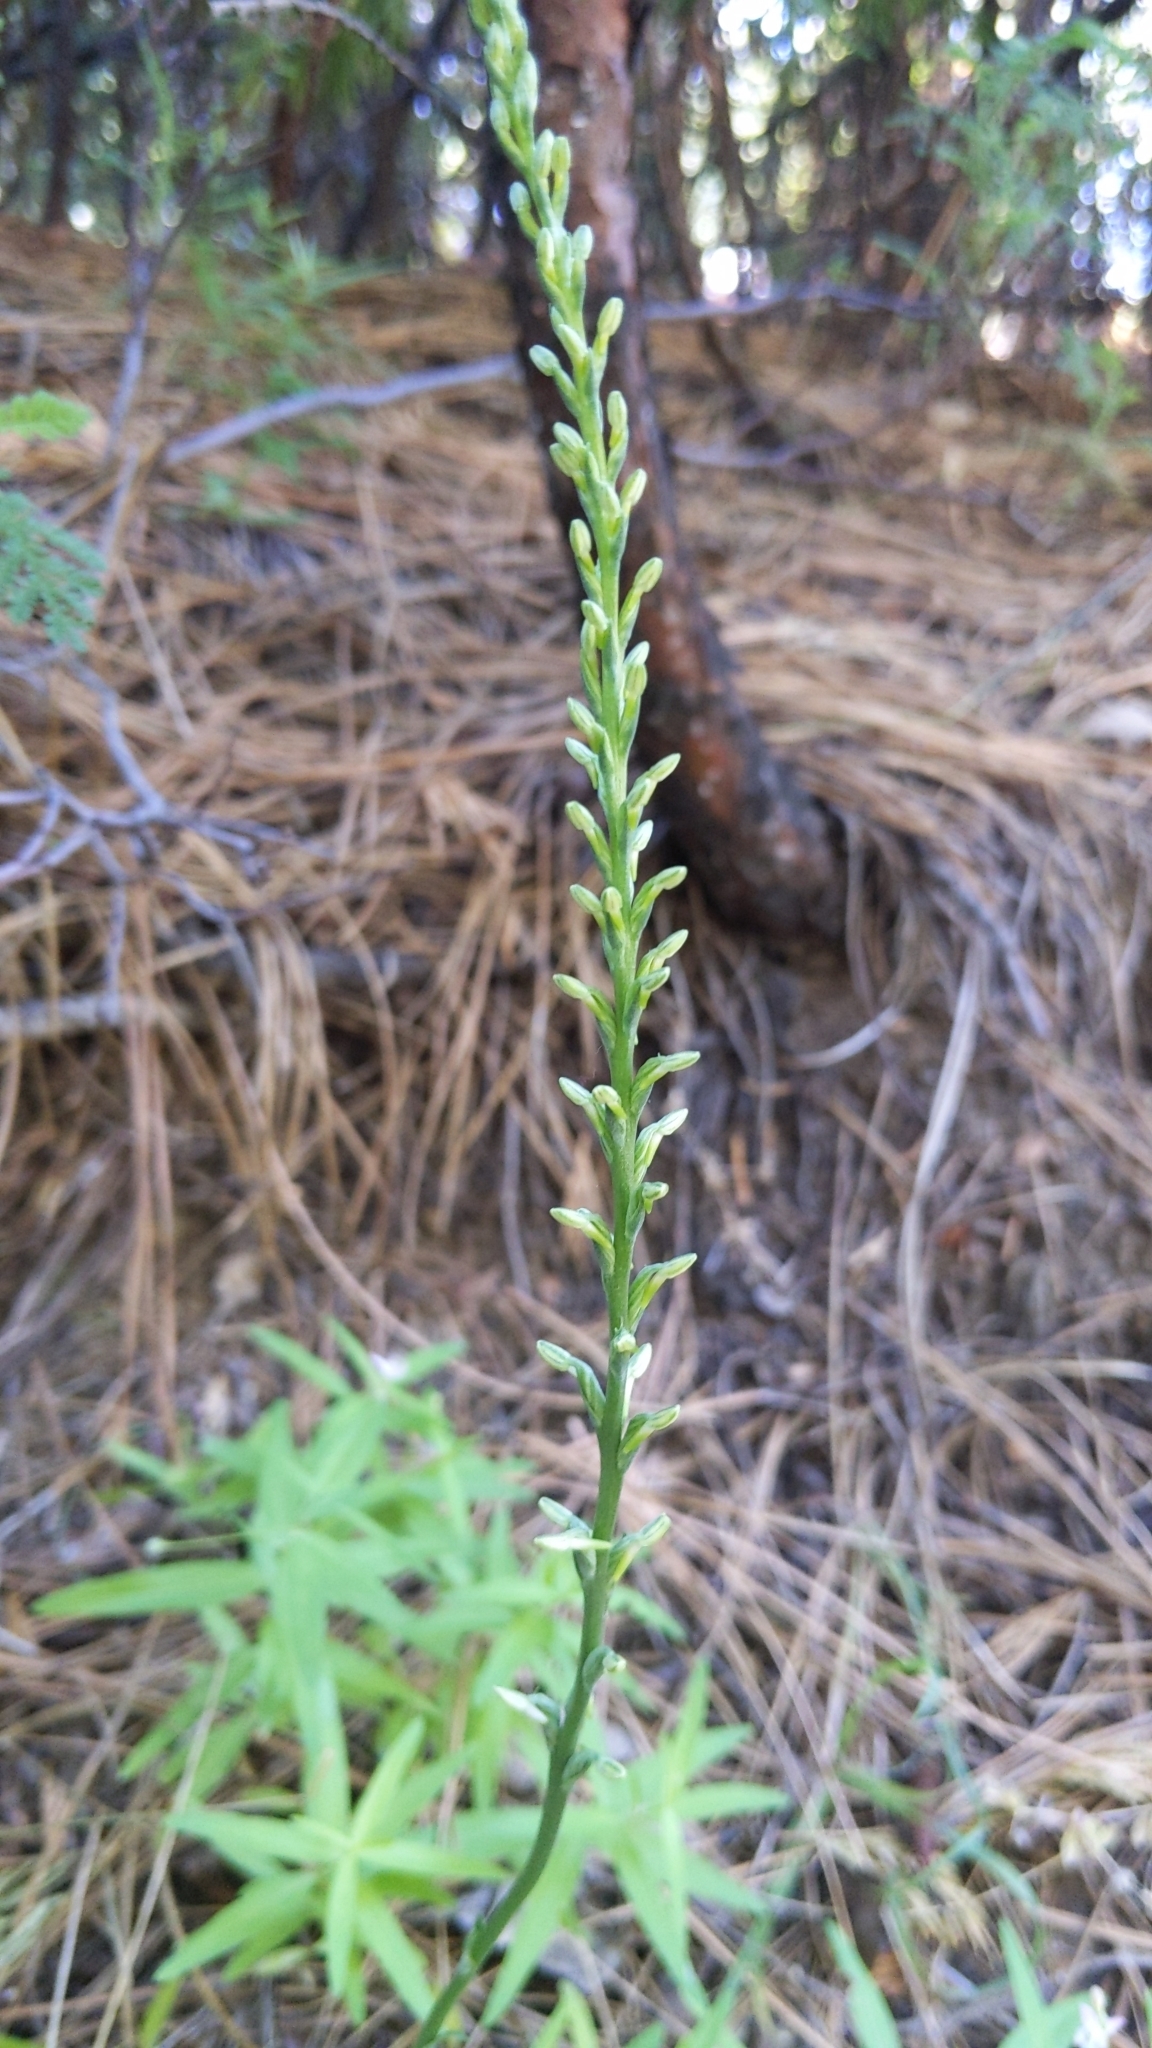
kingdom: Plantae
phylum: Tracheophyta
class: Liliopsida
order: Asparagales
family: Orchidaceae
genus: Platanthera
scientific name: Platanthera transversa
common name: Royal rein orchid
